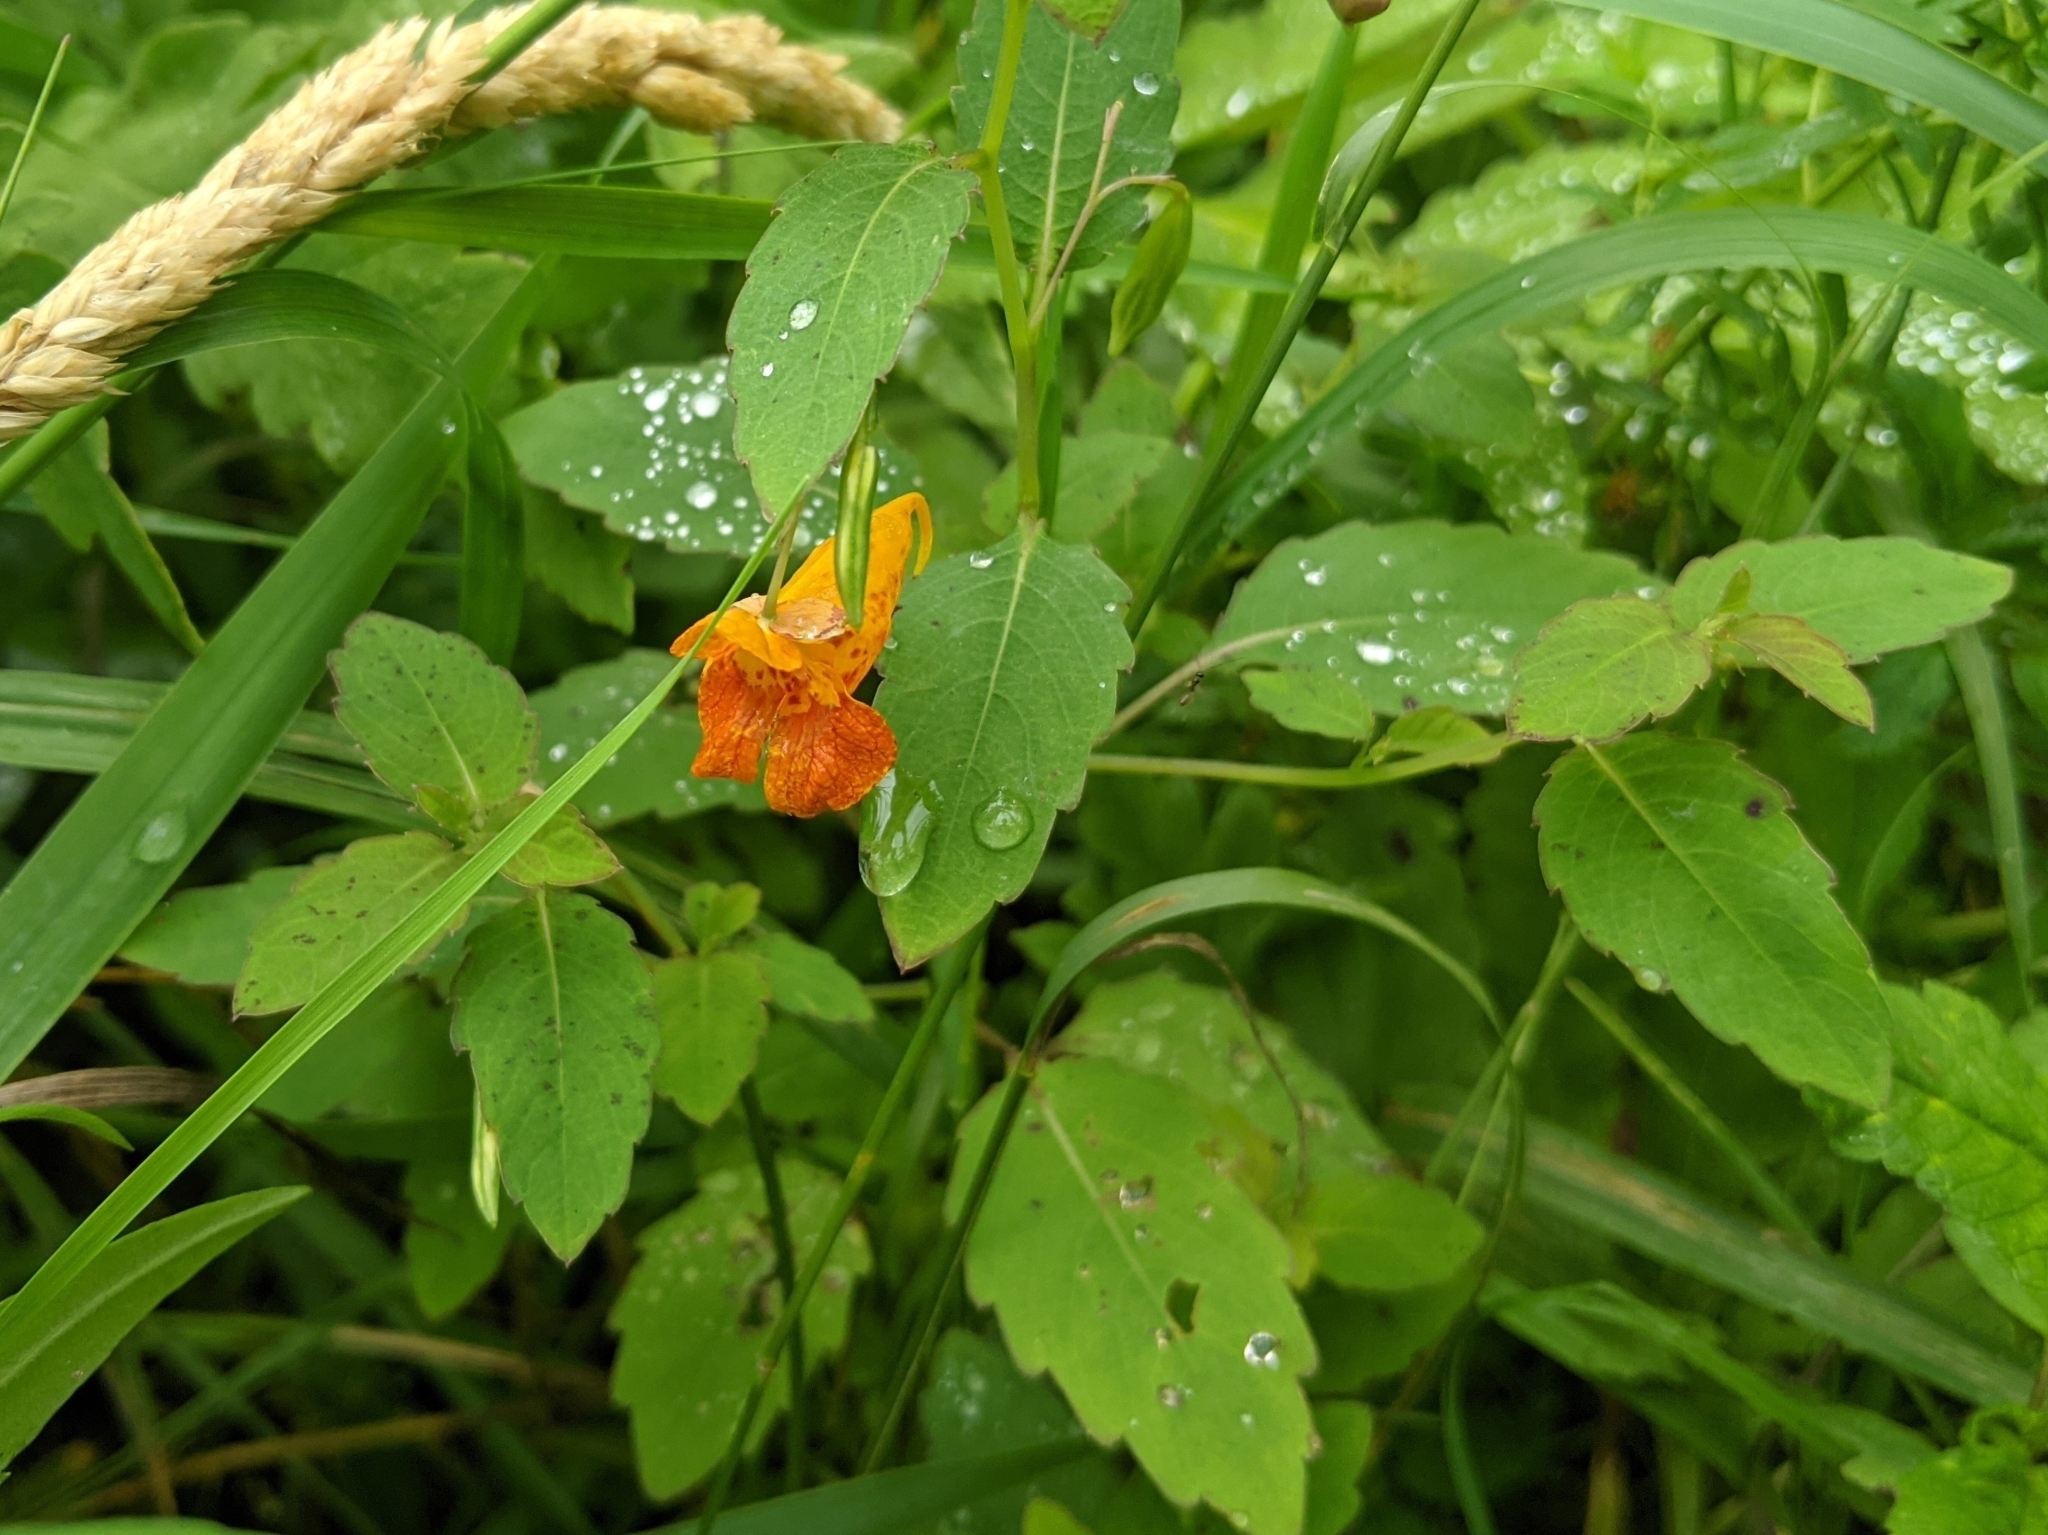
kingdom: Plantae
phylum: Tracheophyta
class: Magnoliopsida
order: Ericales
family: Balsaminaceae
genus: Impatiens
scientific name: Impatiens capensis
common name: Orange balsam
